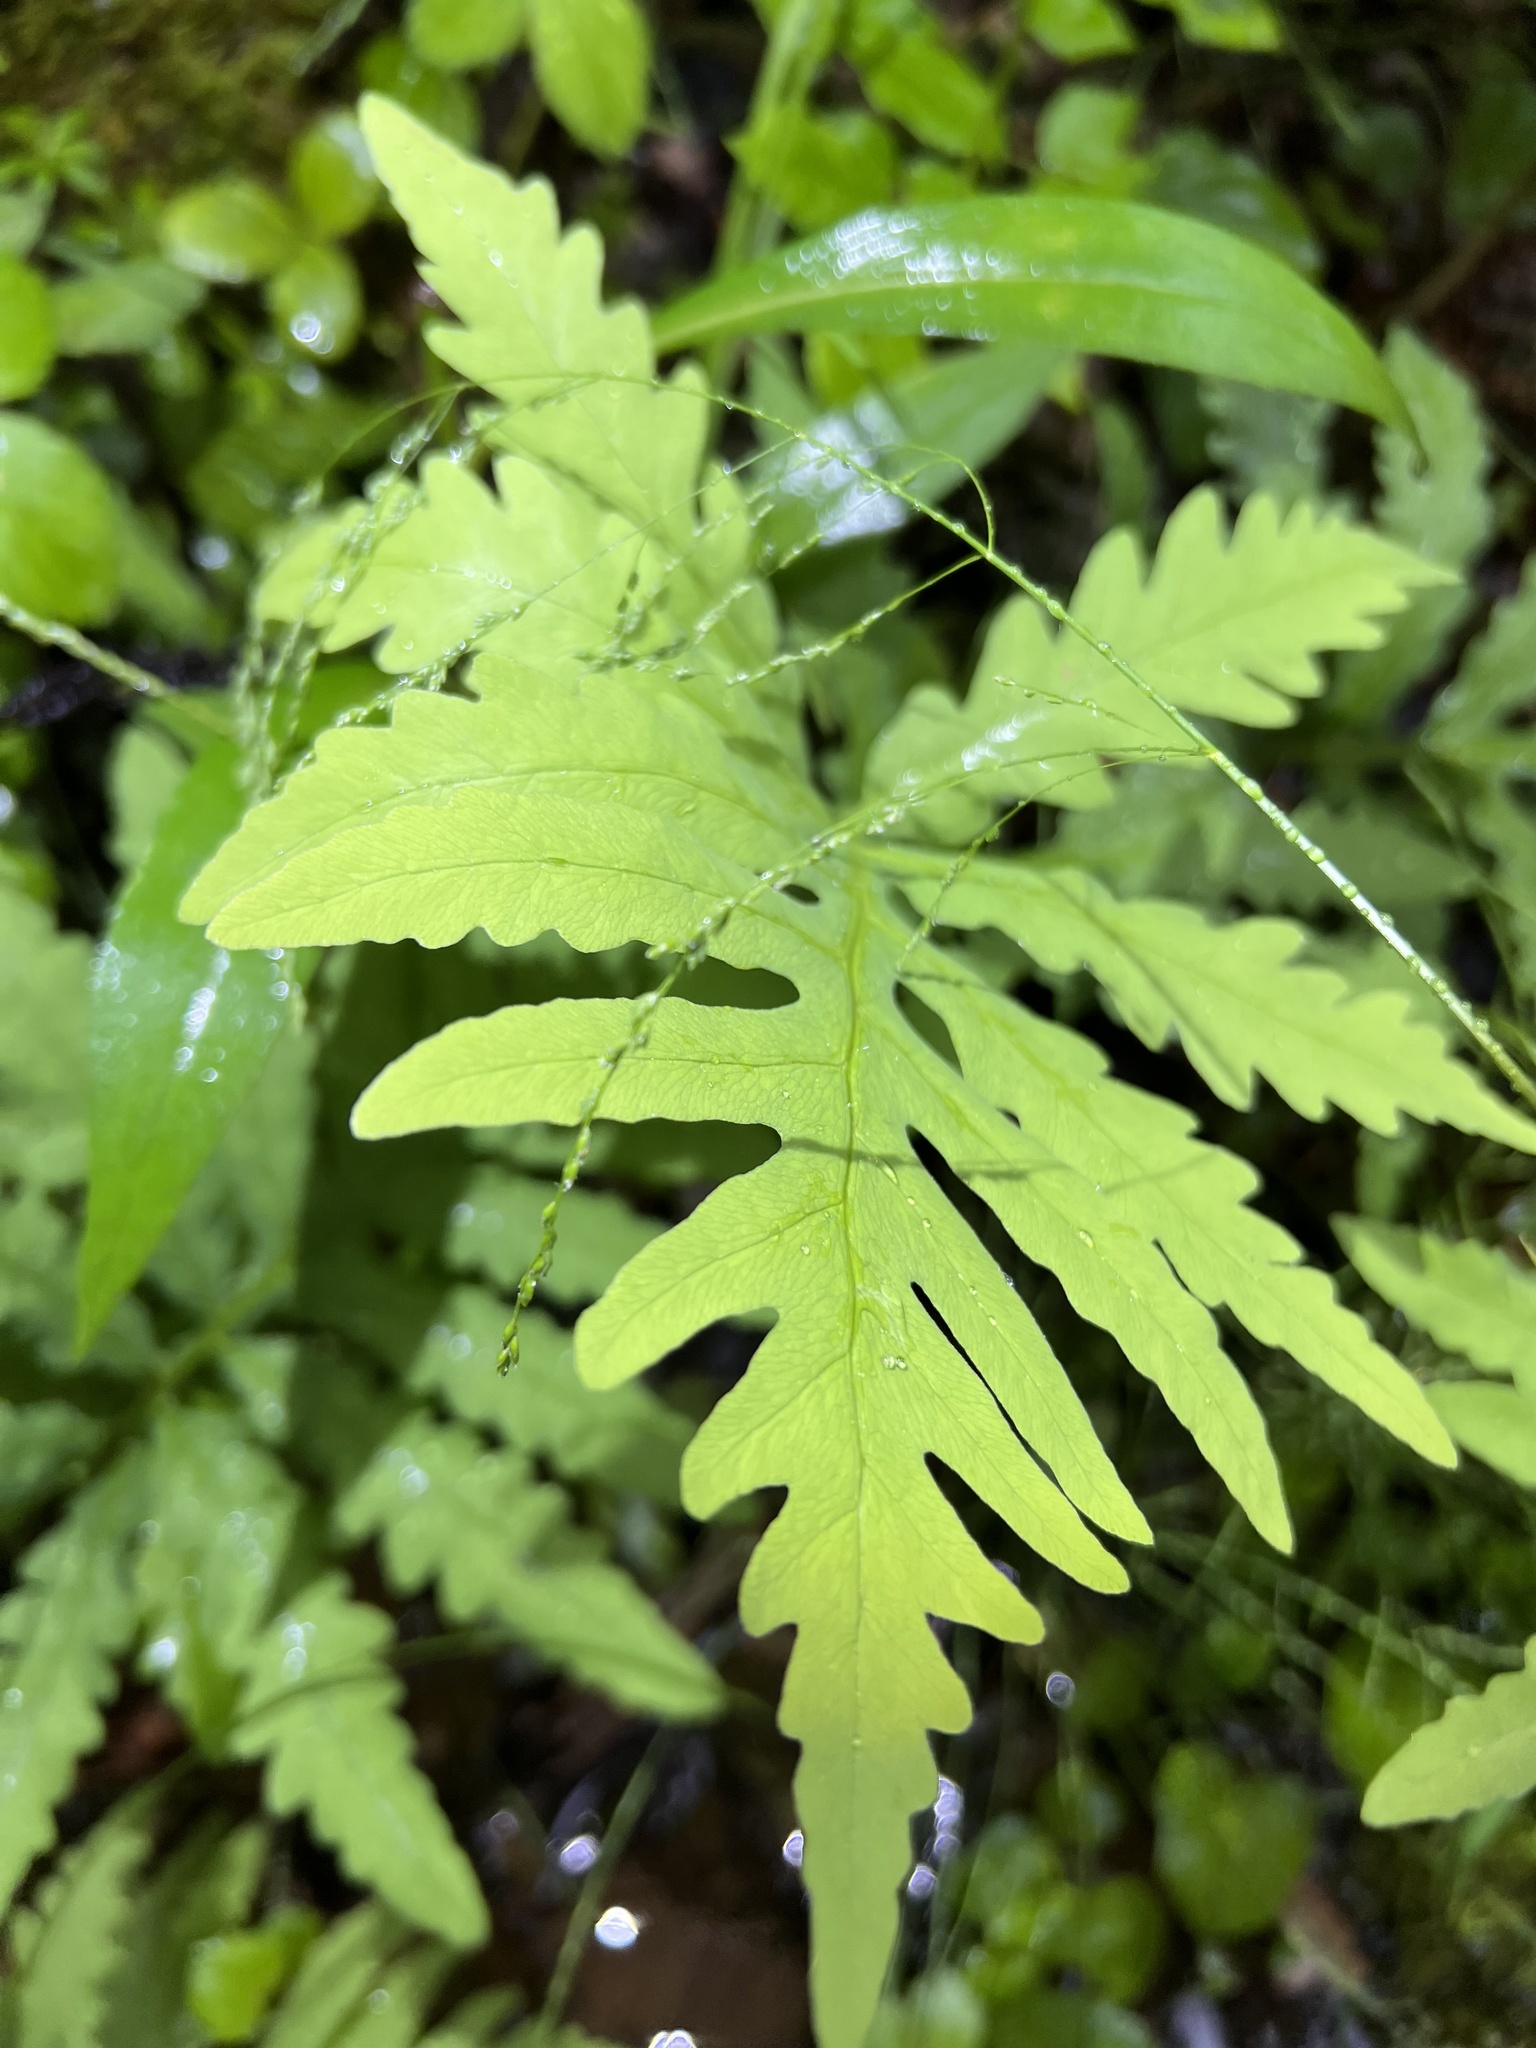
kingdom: Plantae
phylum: Tracheophyta
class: Polypodiopsida
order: Polypodiales
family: Onocleaceae
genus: Onoclea
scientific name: Onoclea sensibilis
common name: Sensitive fern
